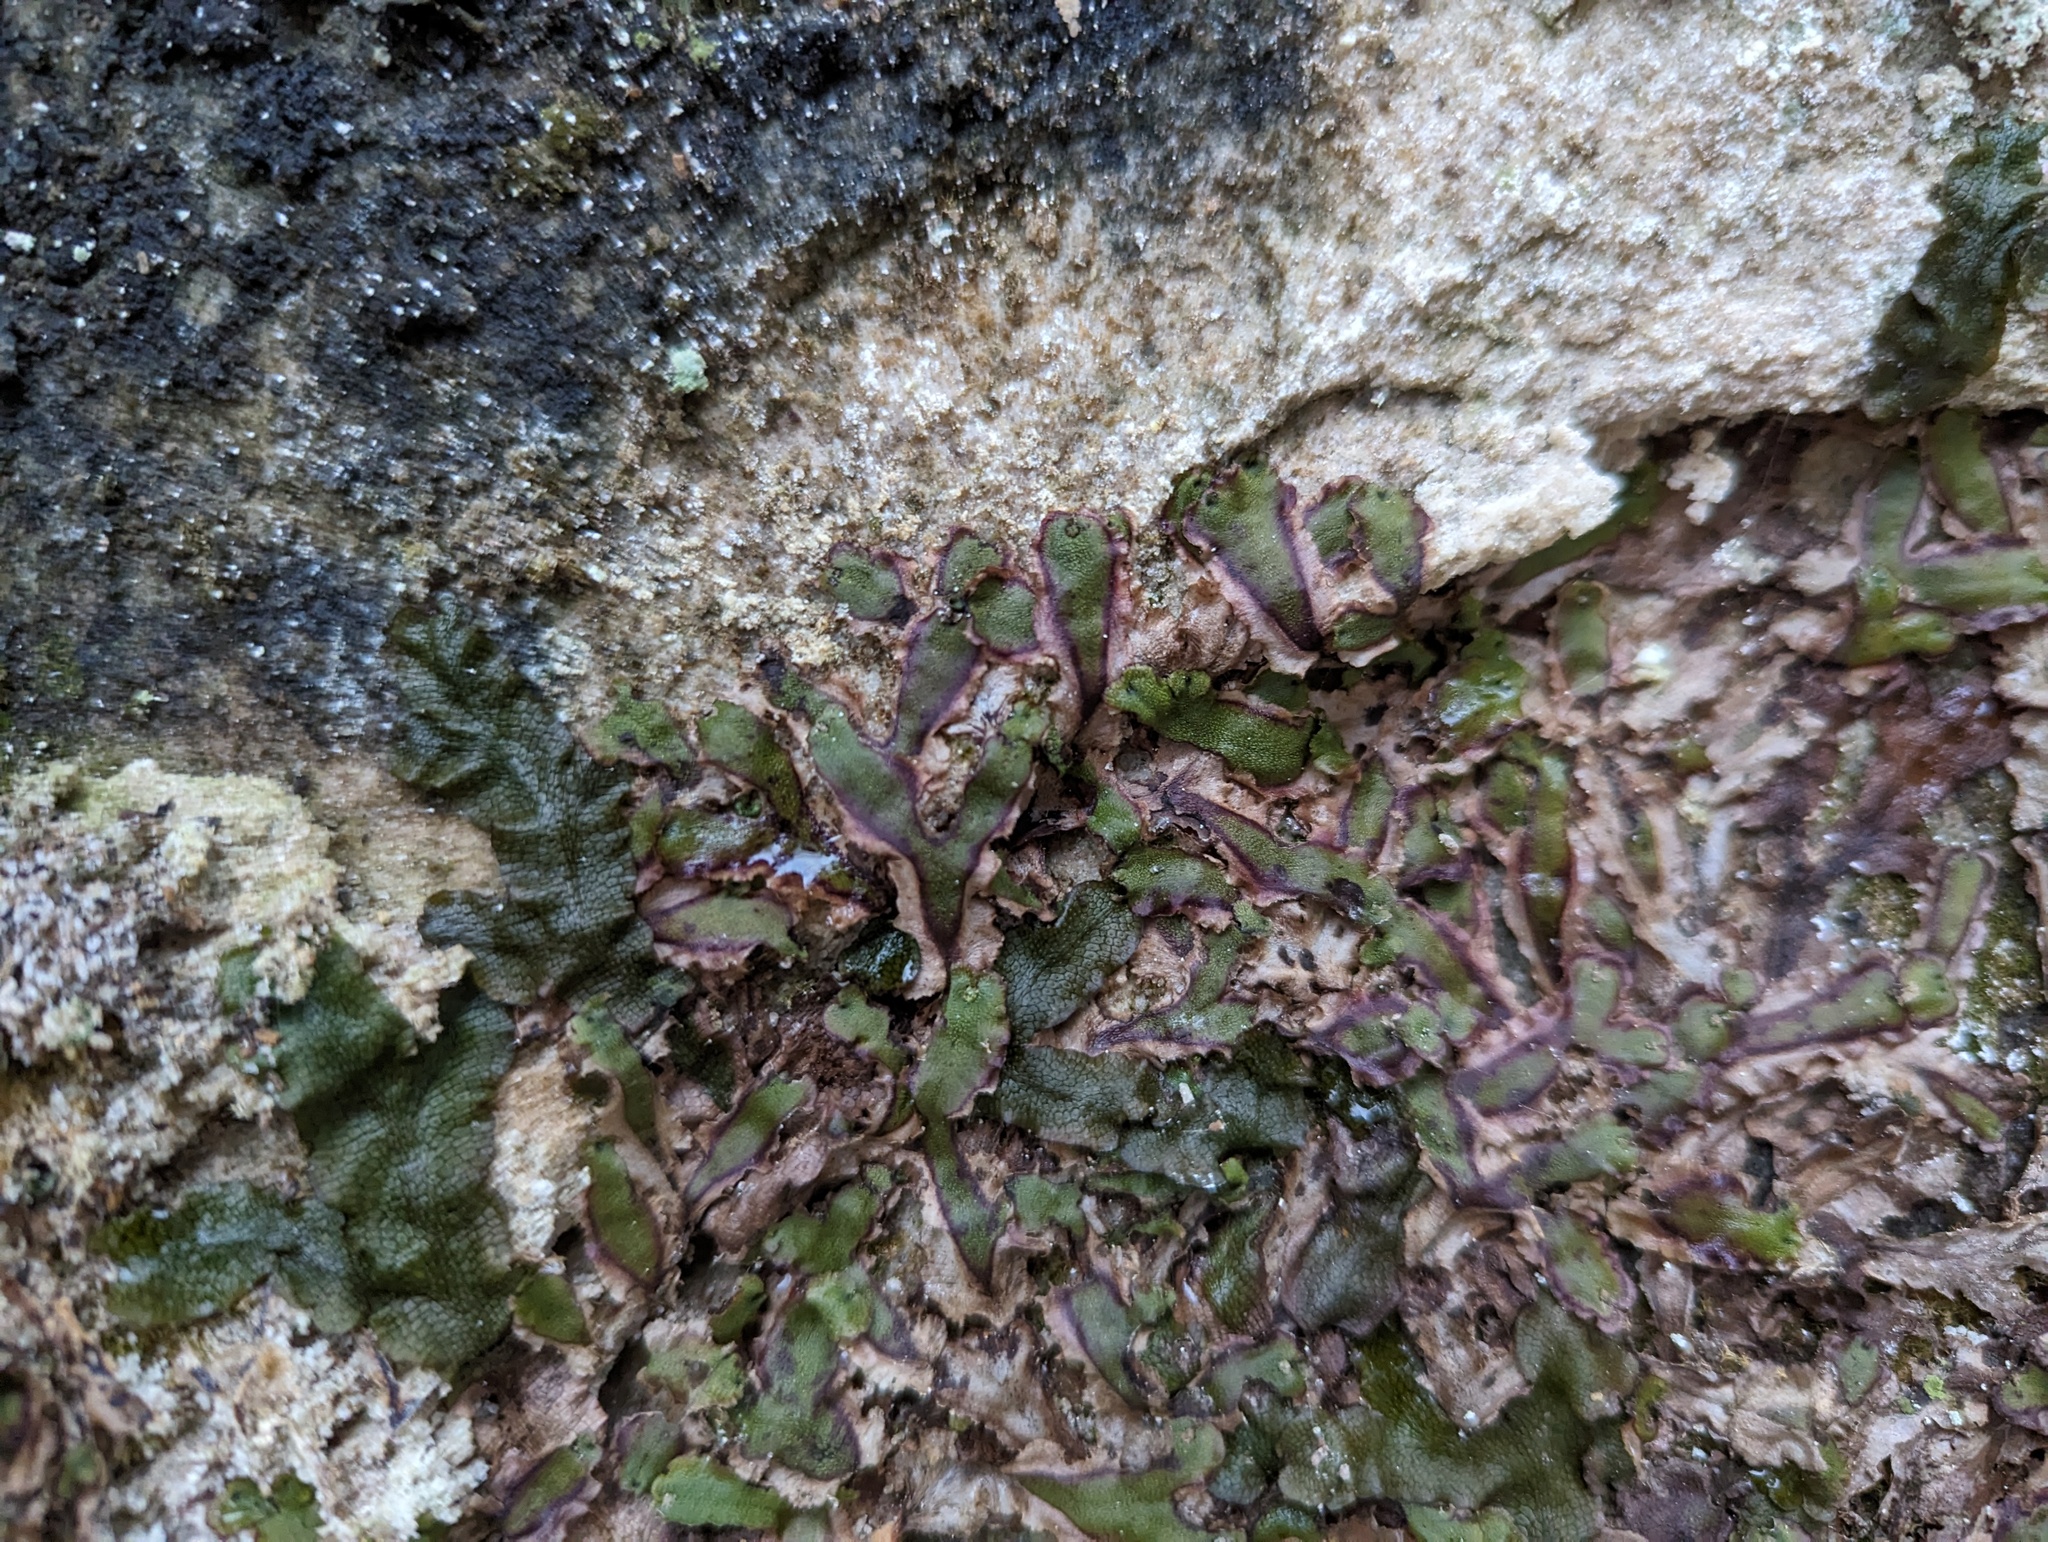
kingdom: Plantae
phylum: Marchantiophyta
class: Marchantiopsida
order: Marchantiales
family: Aytoniaceae
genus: Reboulia
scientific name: Reboulia hemisphaerica
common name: Purple-margined liverwort
